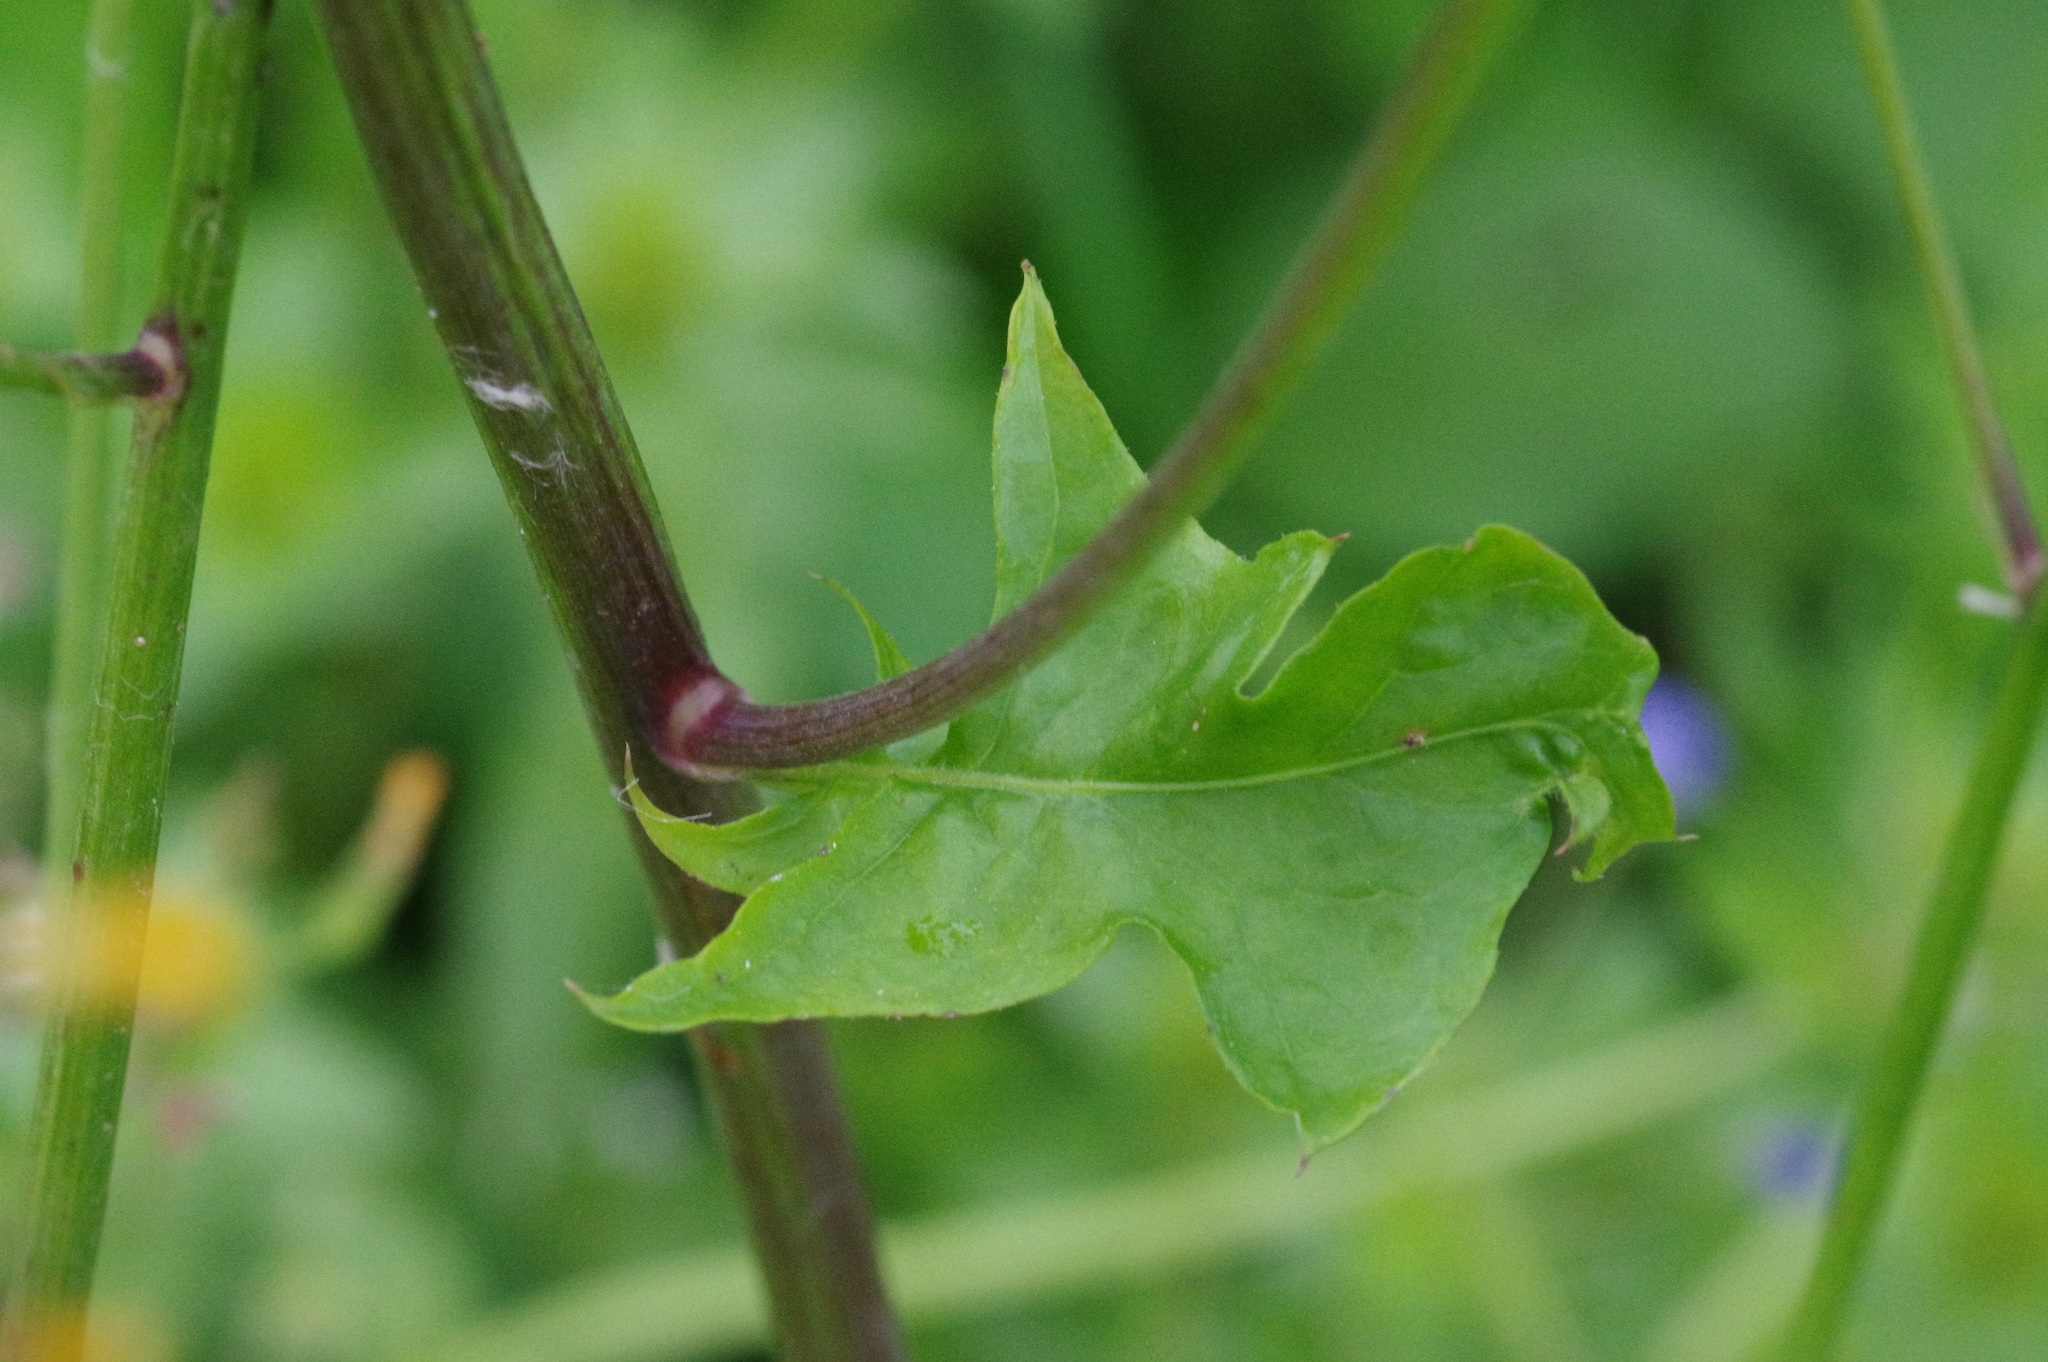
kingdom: Plantae
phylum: Tracheophyta
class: Magnoliopsida
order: Asterales
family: Asteraceae
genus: Youngia
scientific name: Youngia japonica
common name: Oriental false hawksbeard
